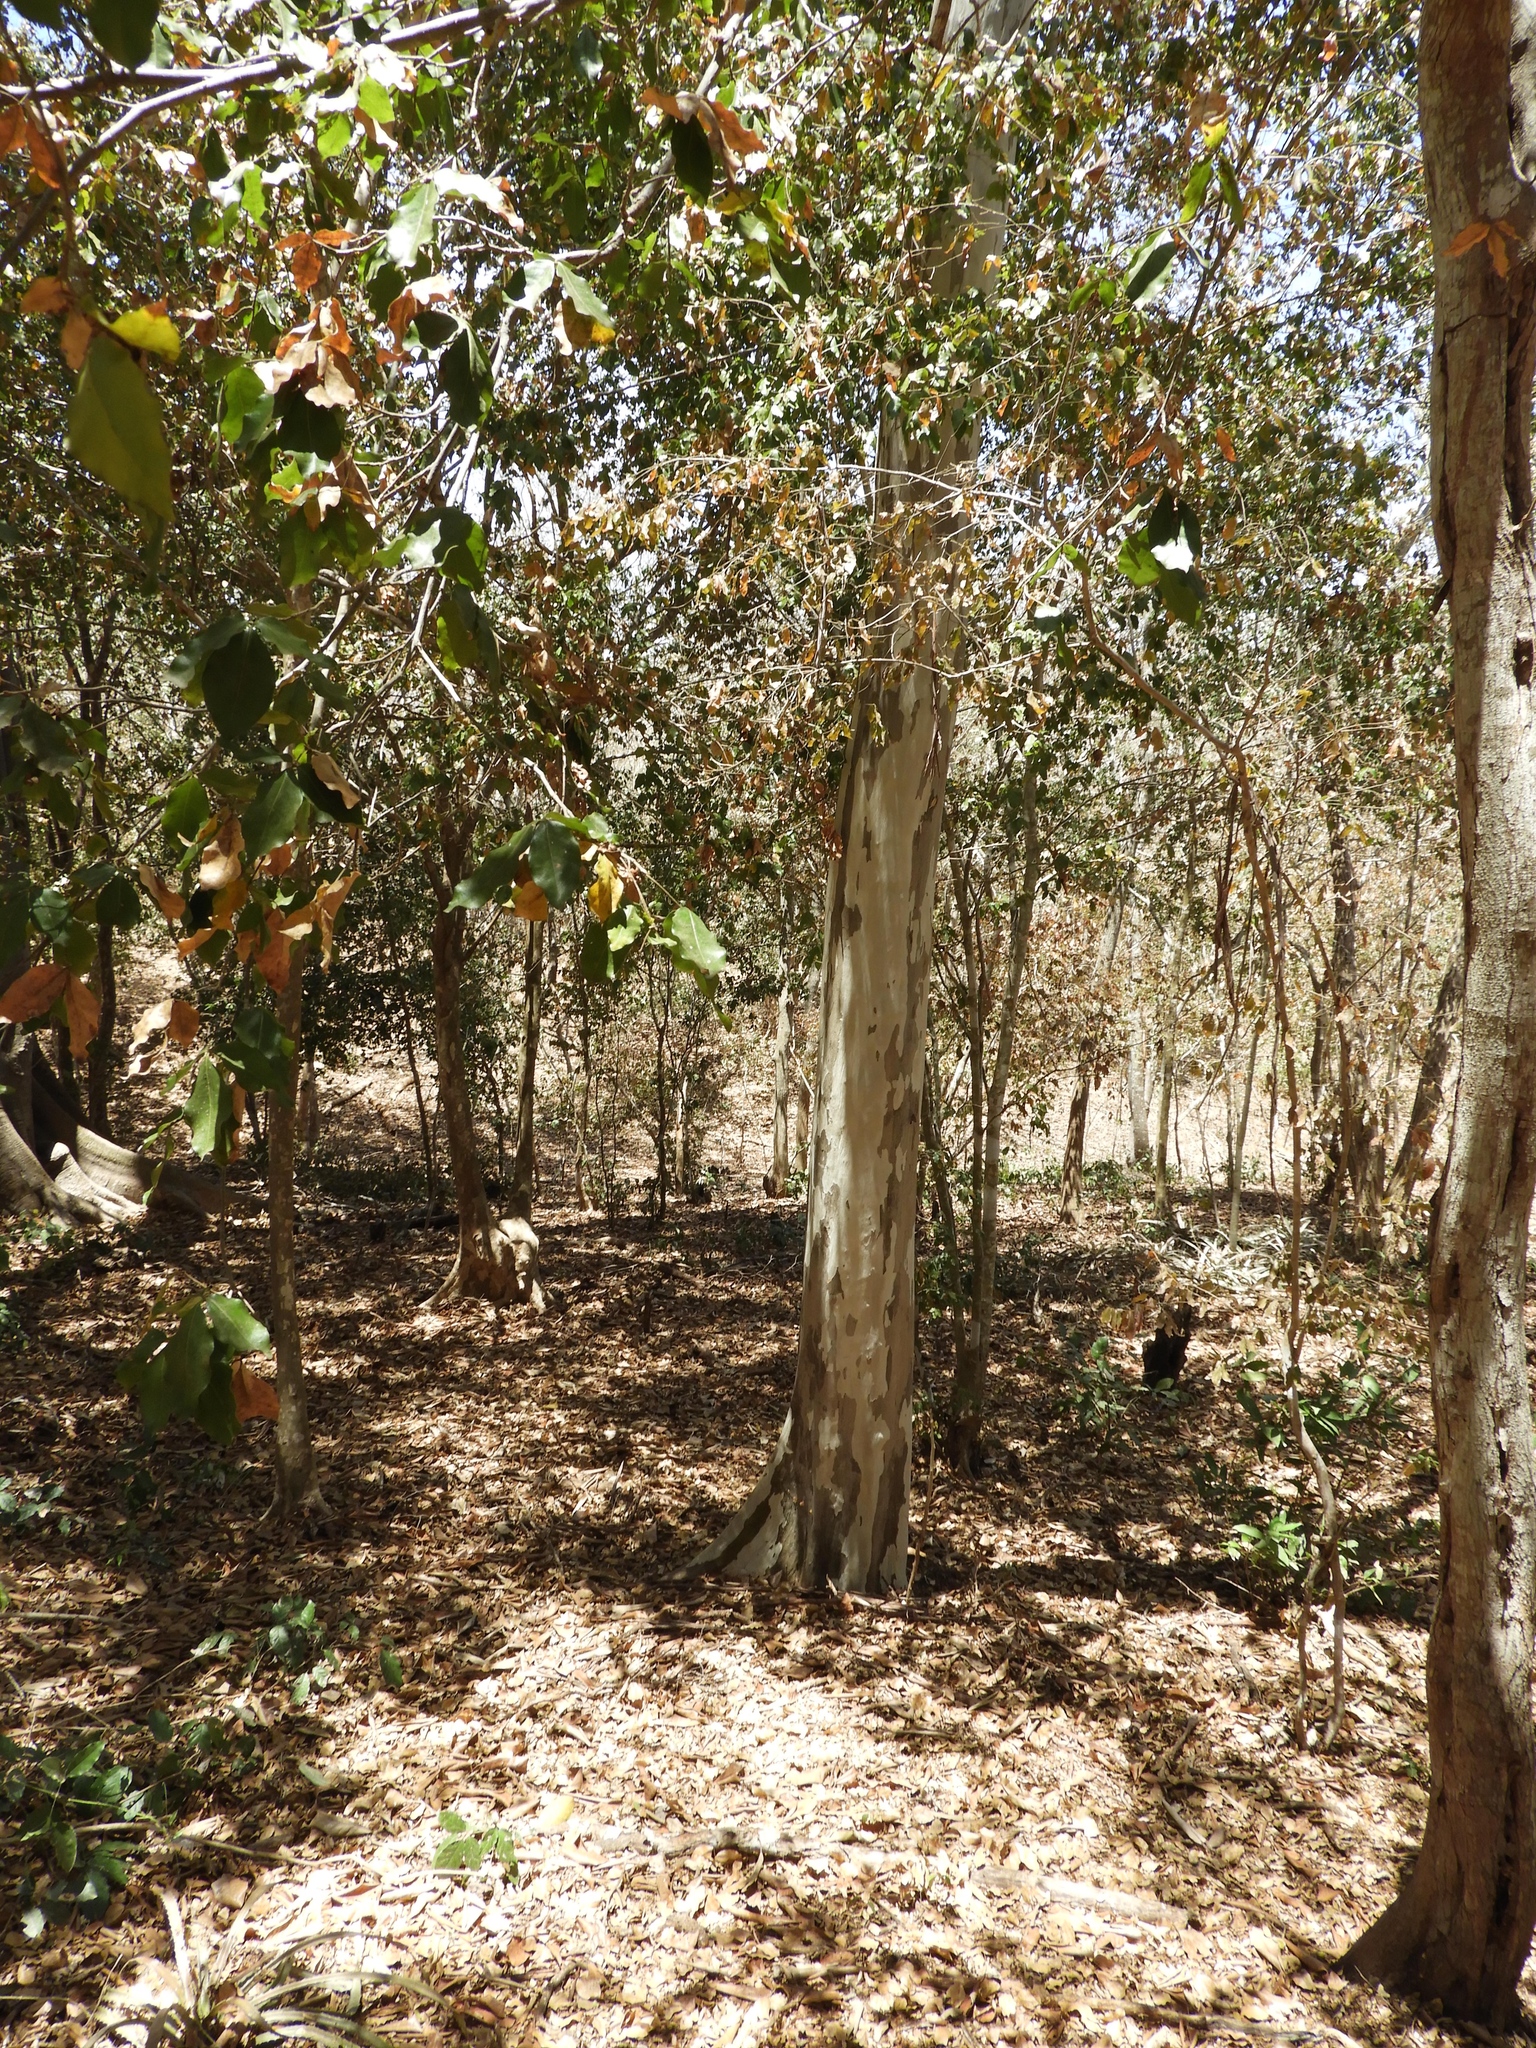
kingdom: Plantae
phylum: Tracheophyta
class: Magnoliopsida
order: Fabales
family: Fabaceae
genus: Libidibia
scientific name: Libidibia sclerocarpa
